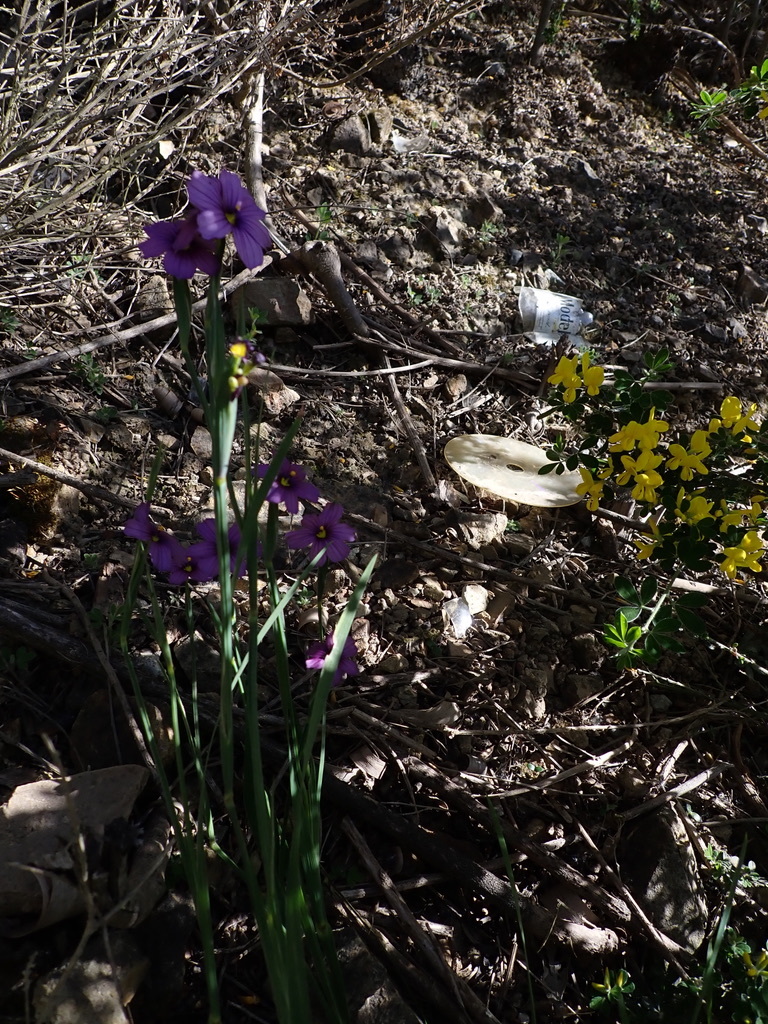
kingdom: Plantae
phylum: Tracheophyta
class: Liliopsida
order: Asparagales
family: Iridaceae
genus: Sisyrinchium
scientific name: Sisyrinchium bellum
